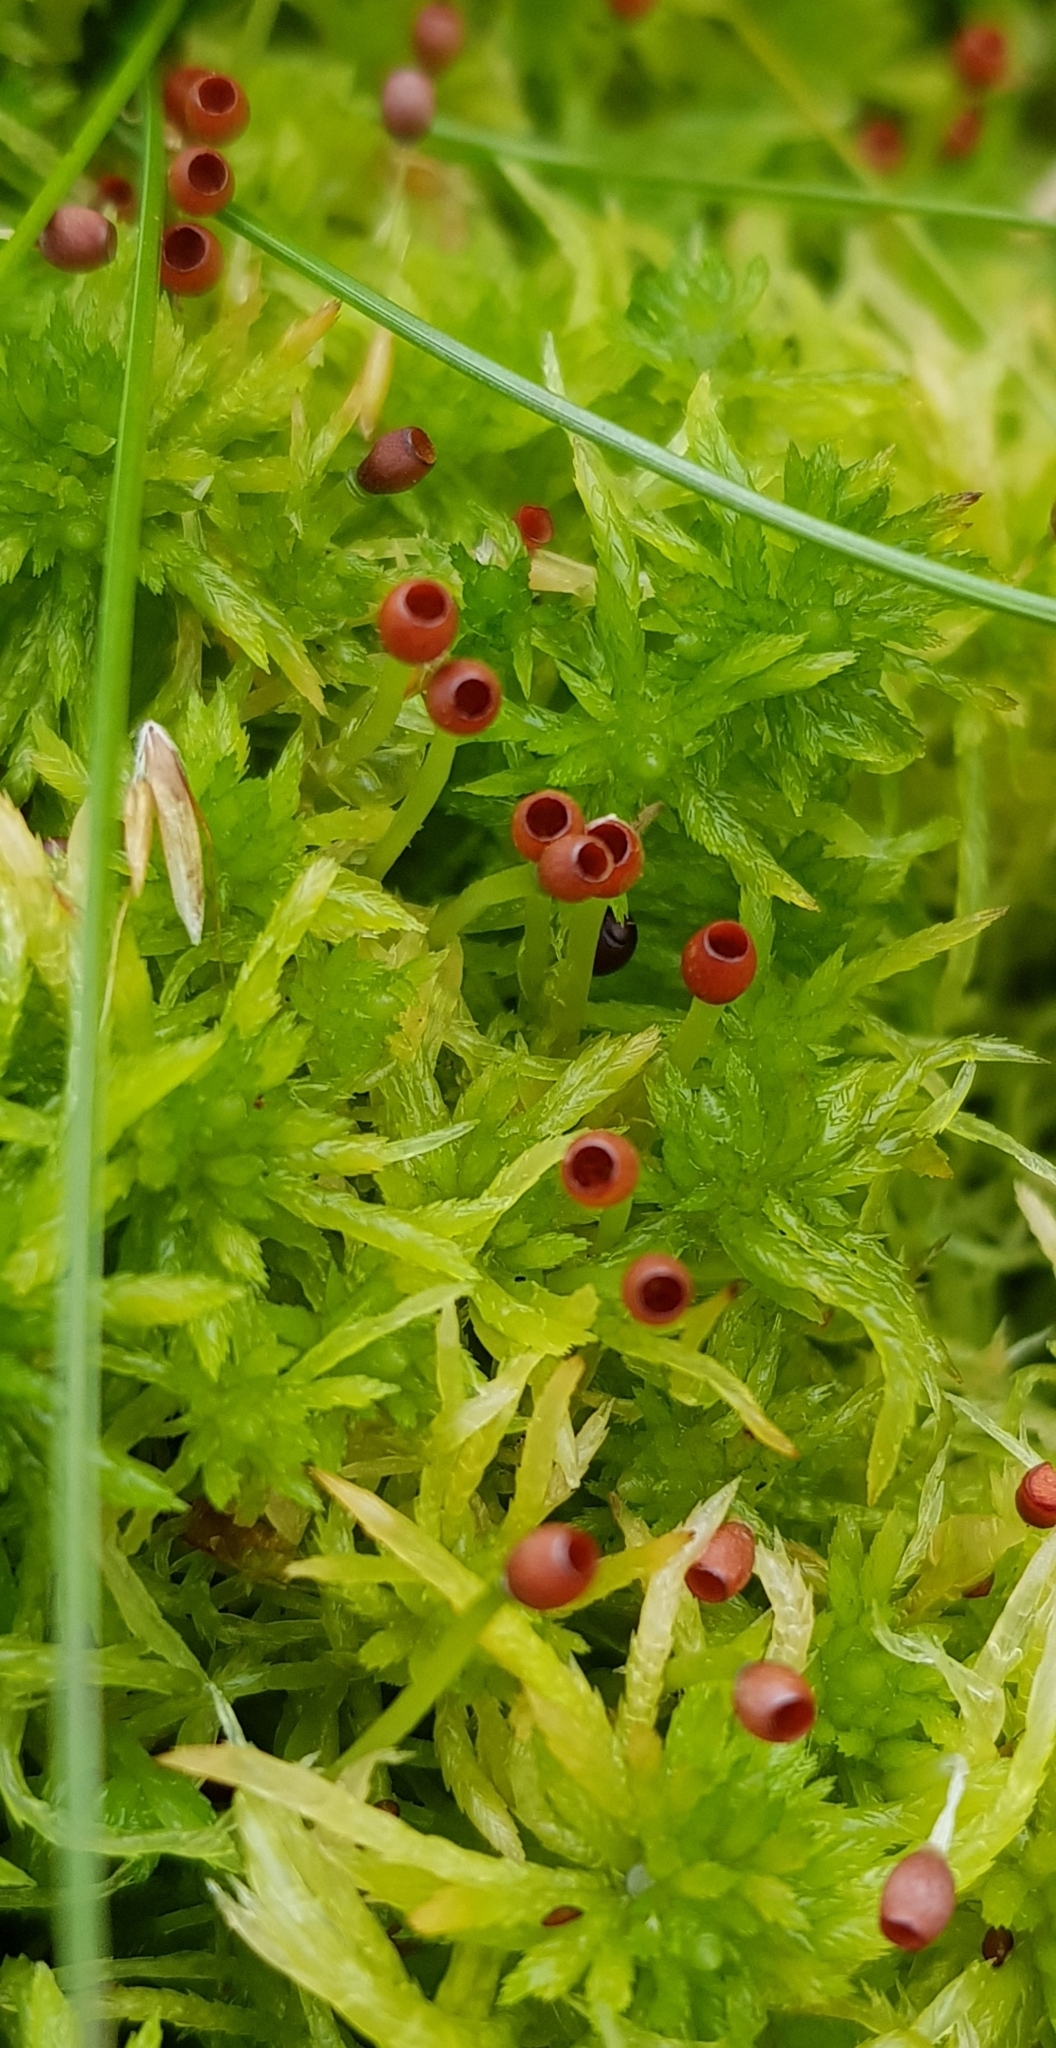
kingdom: Plantae
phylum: Bryophyta
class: Sphagnopsida
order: Sphagnales
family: Sphagnaceae
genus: Sphagnum
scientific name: Sphagnum fimbriatum
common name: Fringed peat moss
